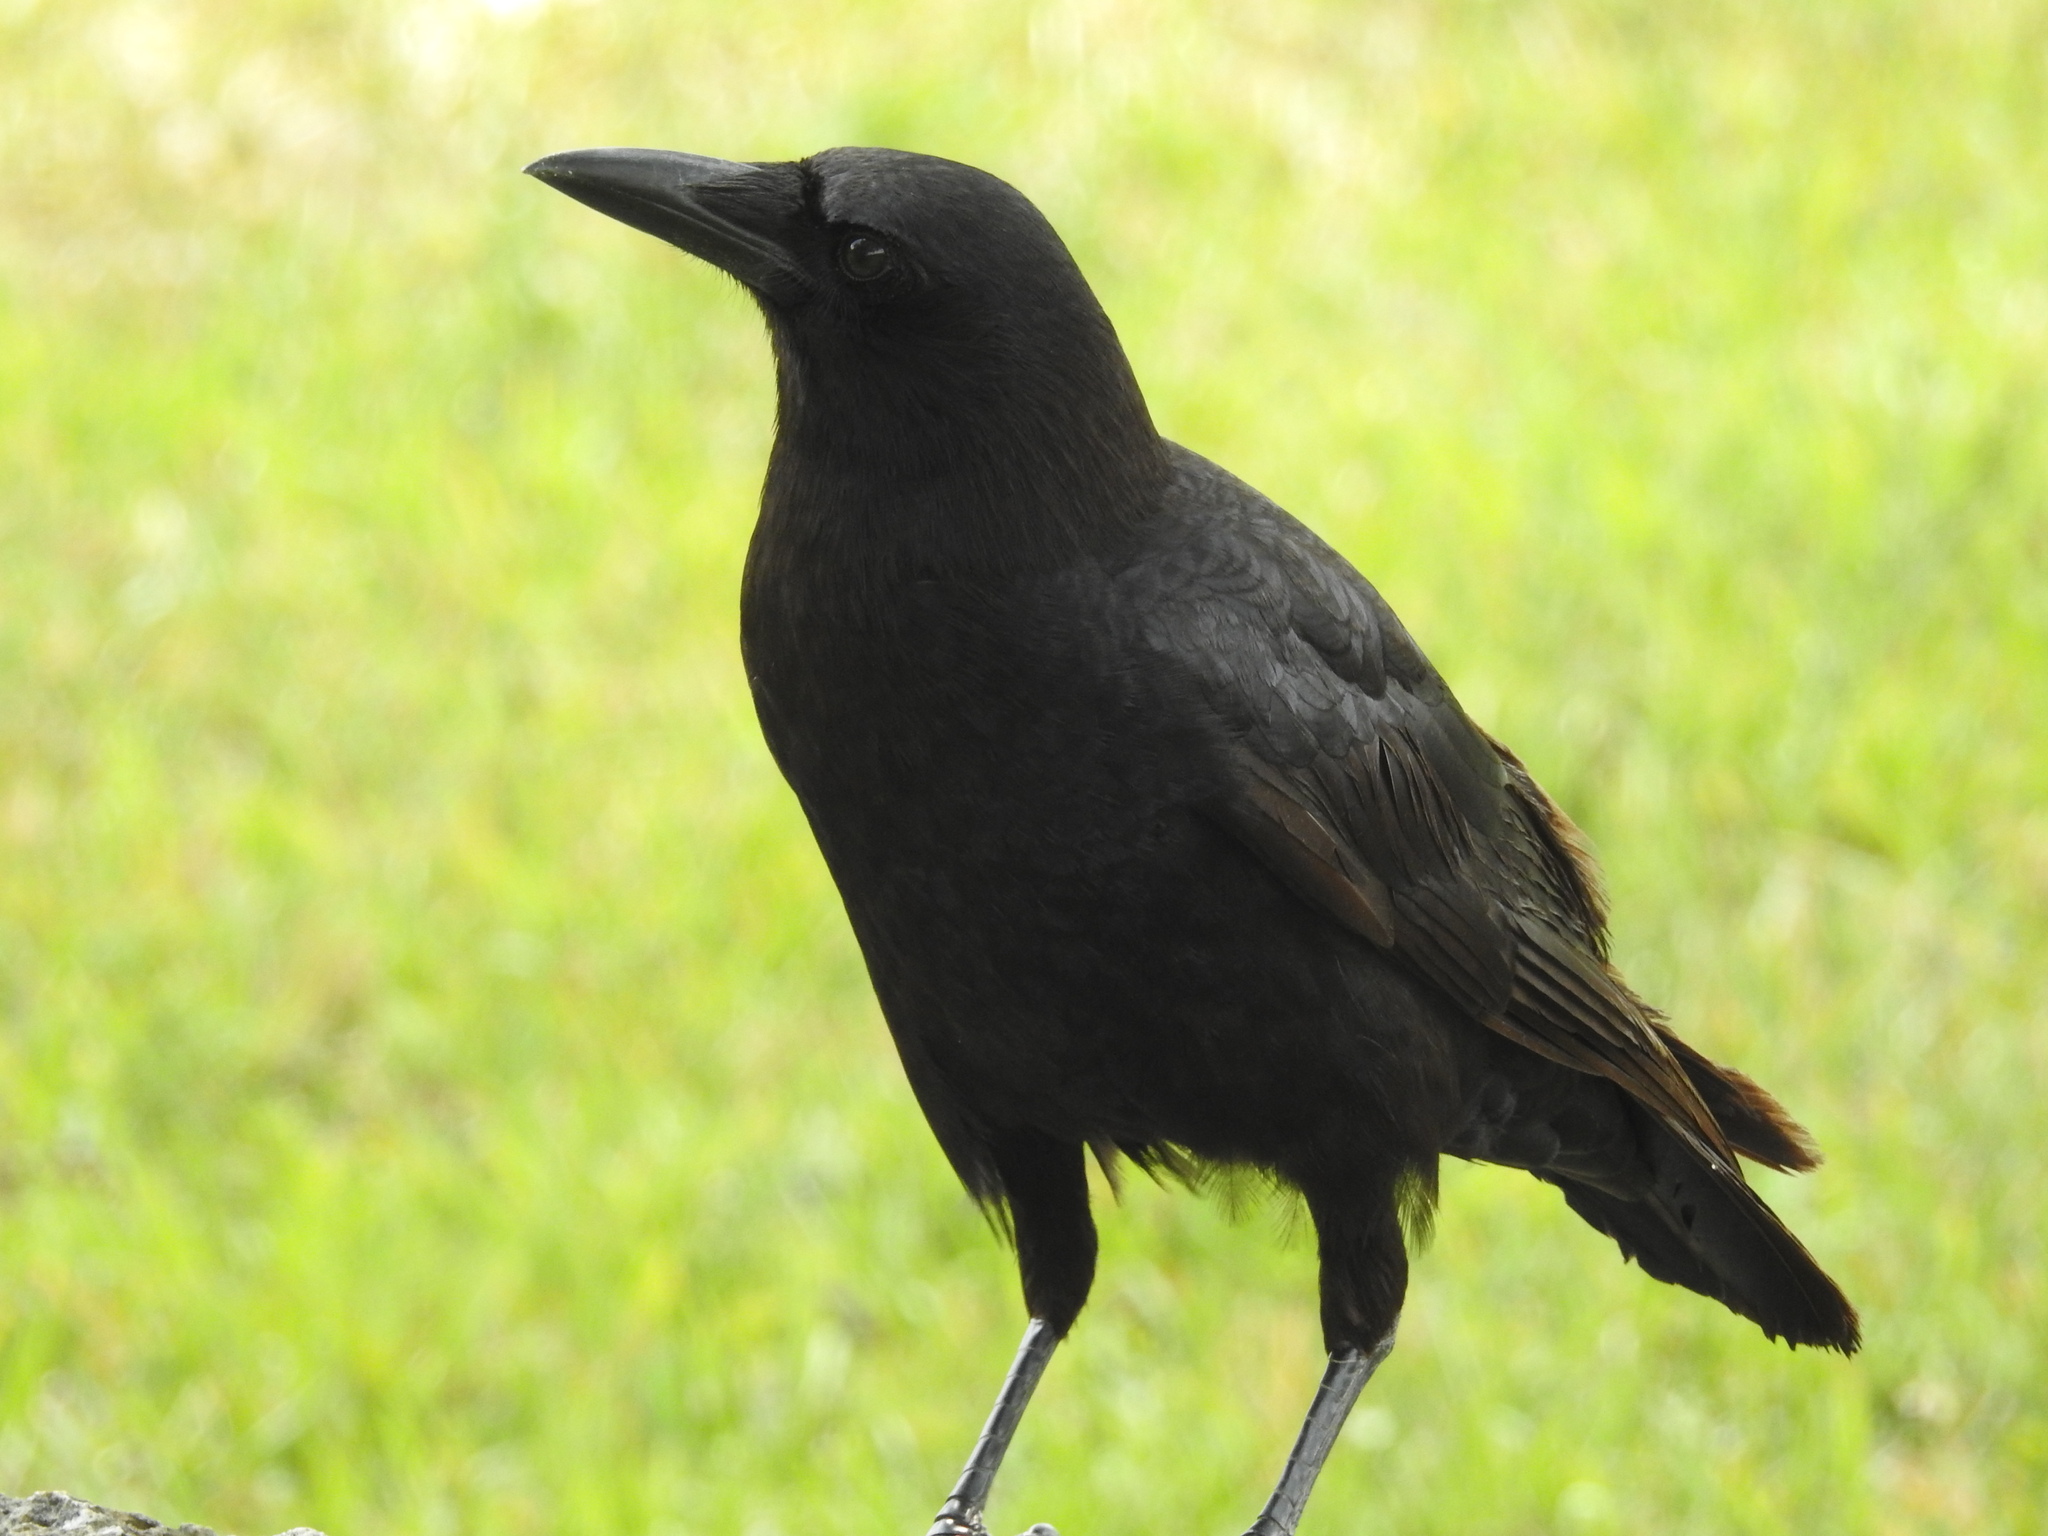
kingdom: Animalia
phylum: Chordata
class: Aves
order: Passeriformes
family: Corvidae
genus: Corvus
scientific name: Corvus brachyrhynchos
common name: American crow
